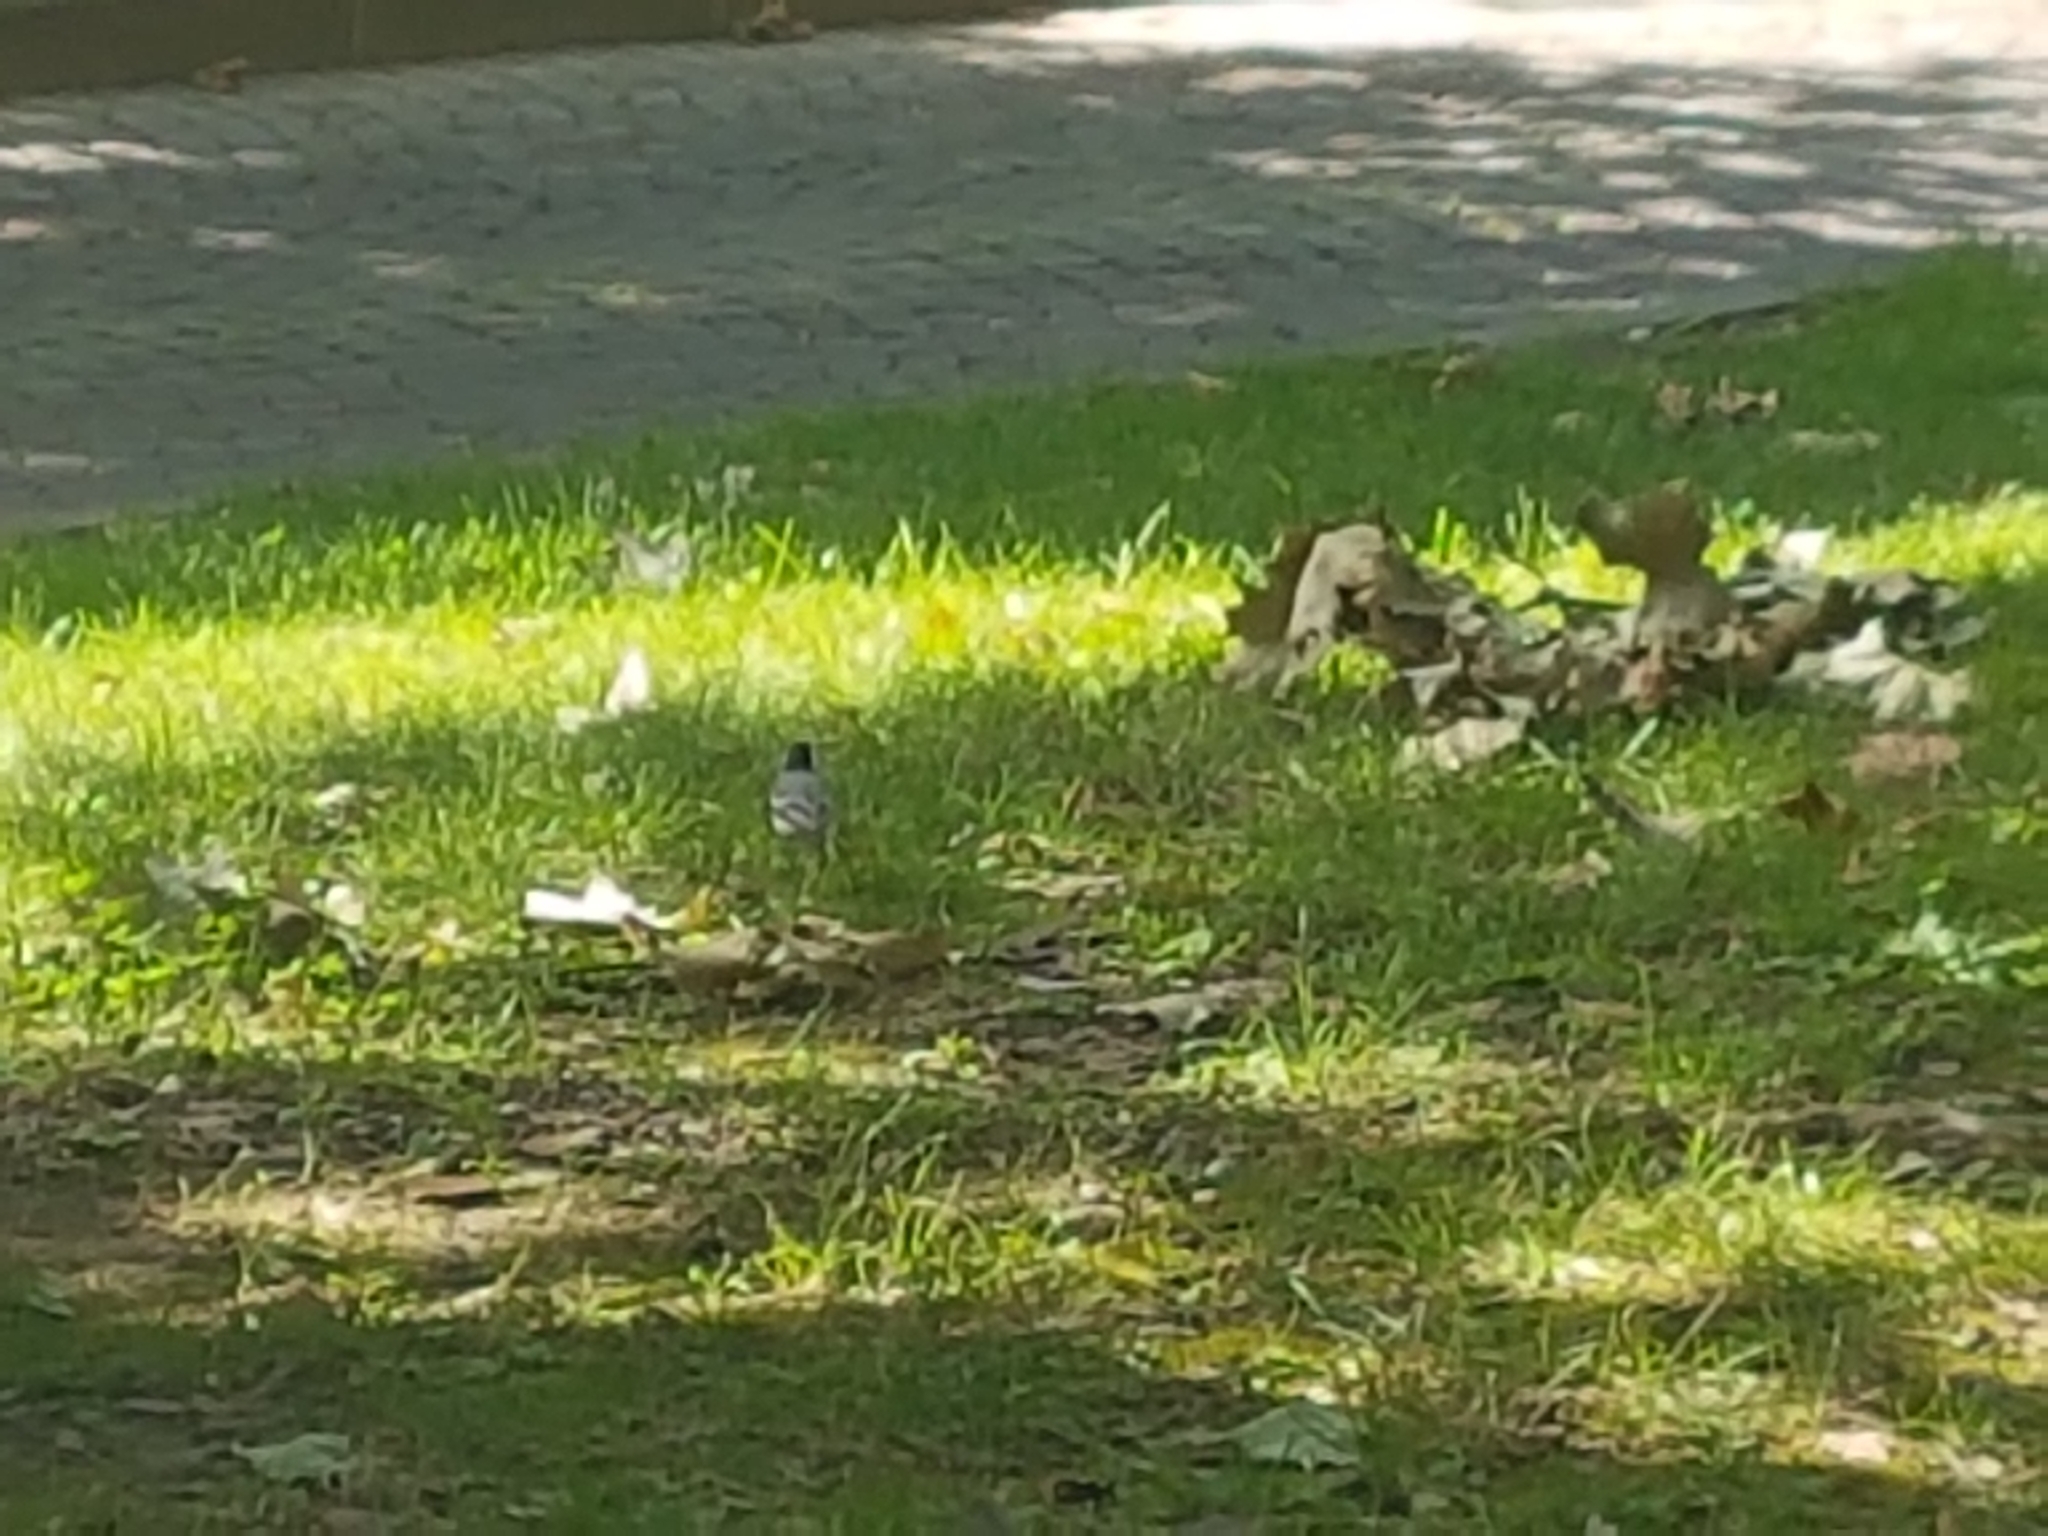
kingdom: Animalia
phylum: Chordata
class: Aves
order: Passeriformes
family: Motacillidae
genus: Motacilla
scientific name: Motacilla alba
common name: White wagtail
